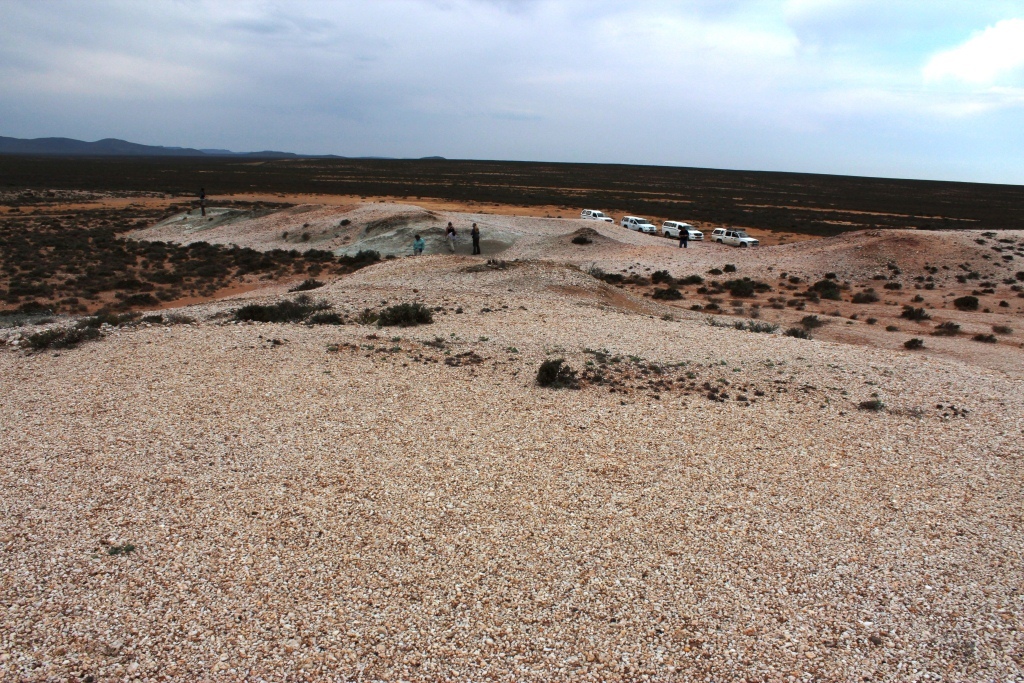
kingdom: Plantae
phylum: Tracheophyta
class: Magnoliopsida
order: Caryophyllales
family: Aizoaceae
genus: Mesembryanthemum
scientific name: Mesembryanthemum digitatum
